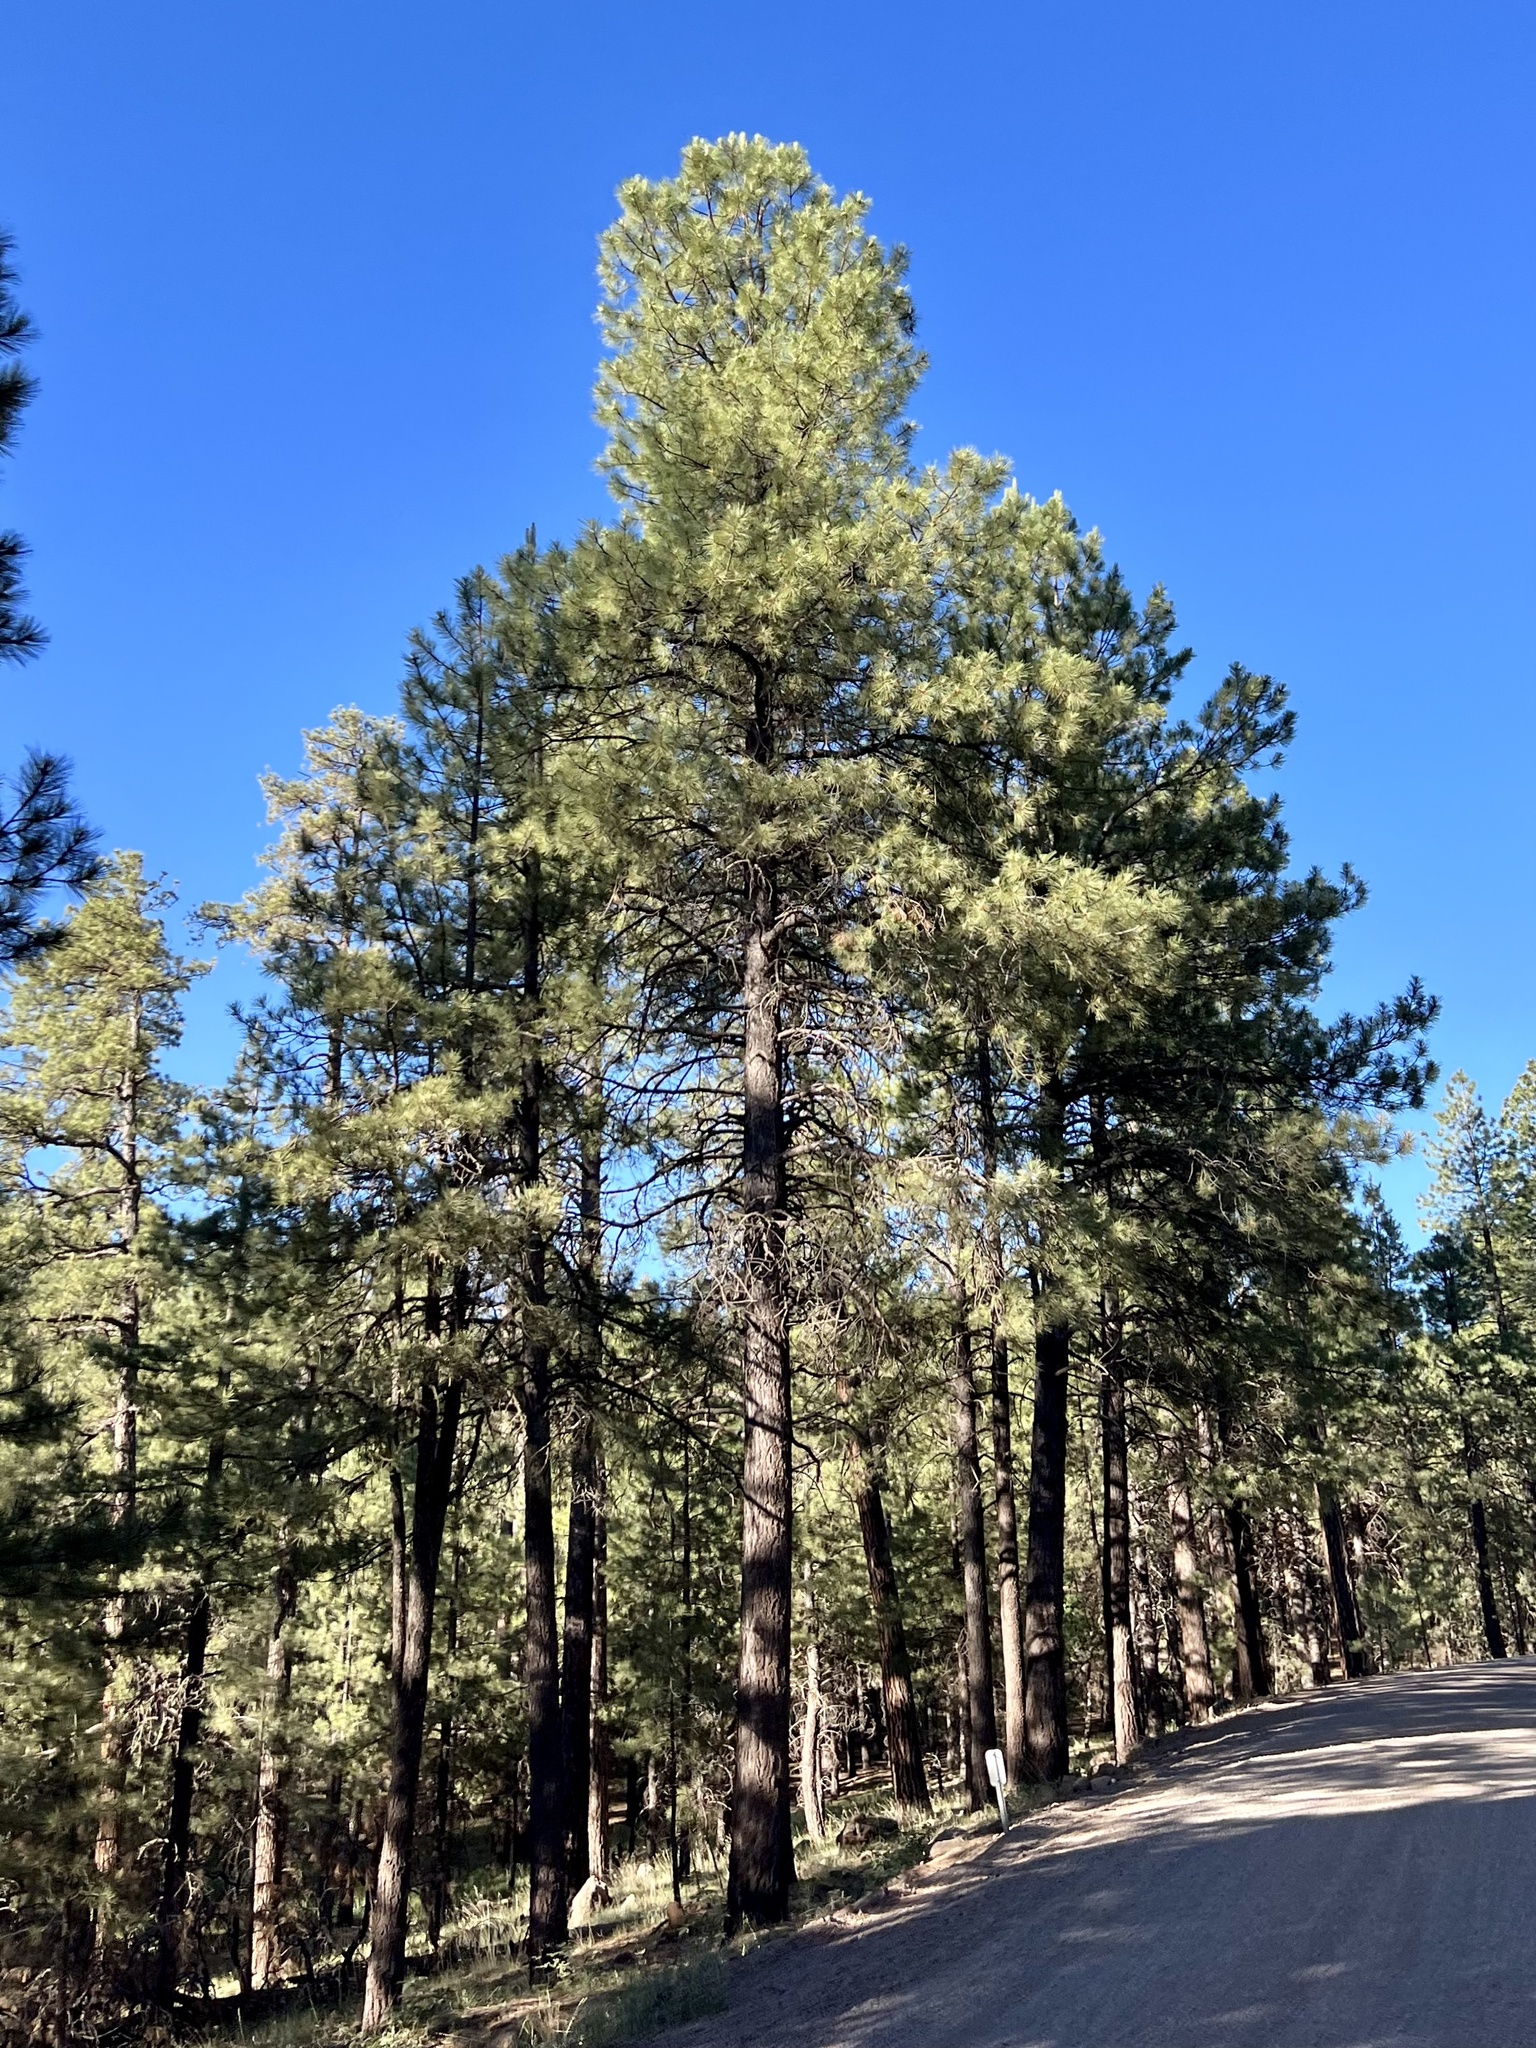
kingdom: Plantae
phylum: Tracheophyta
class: Pinopsida
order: Pinales
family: Pinaceae
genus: Pinus
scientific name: Pinus ponderosa
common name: Western yellow-pine
